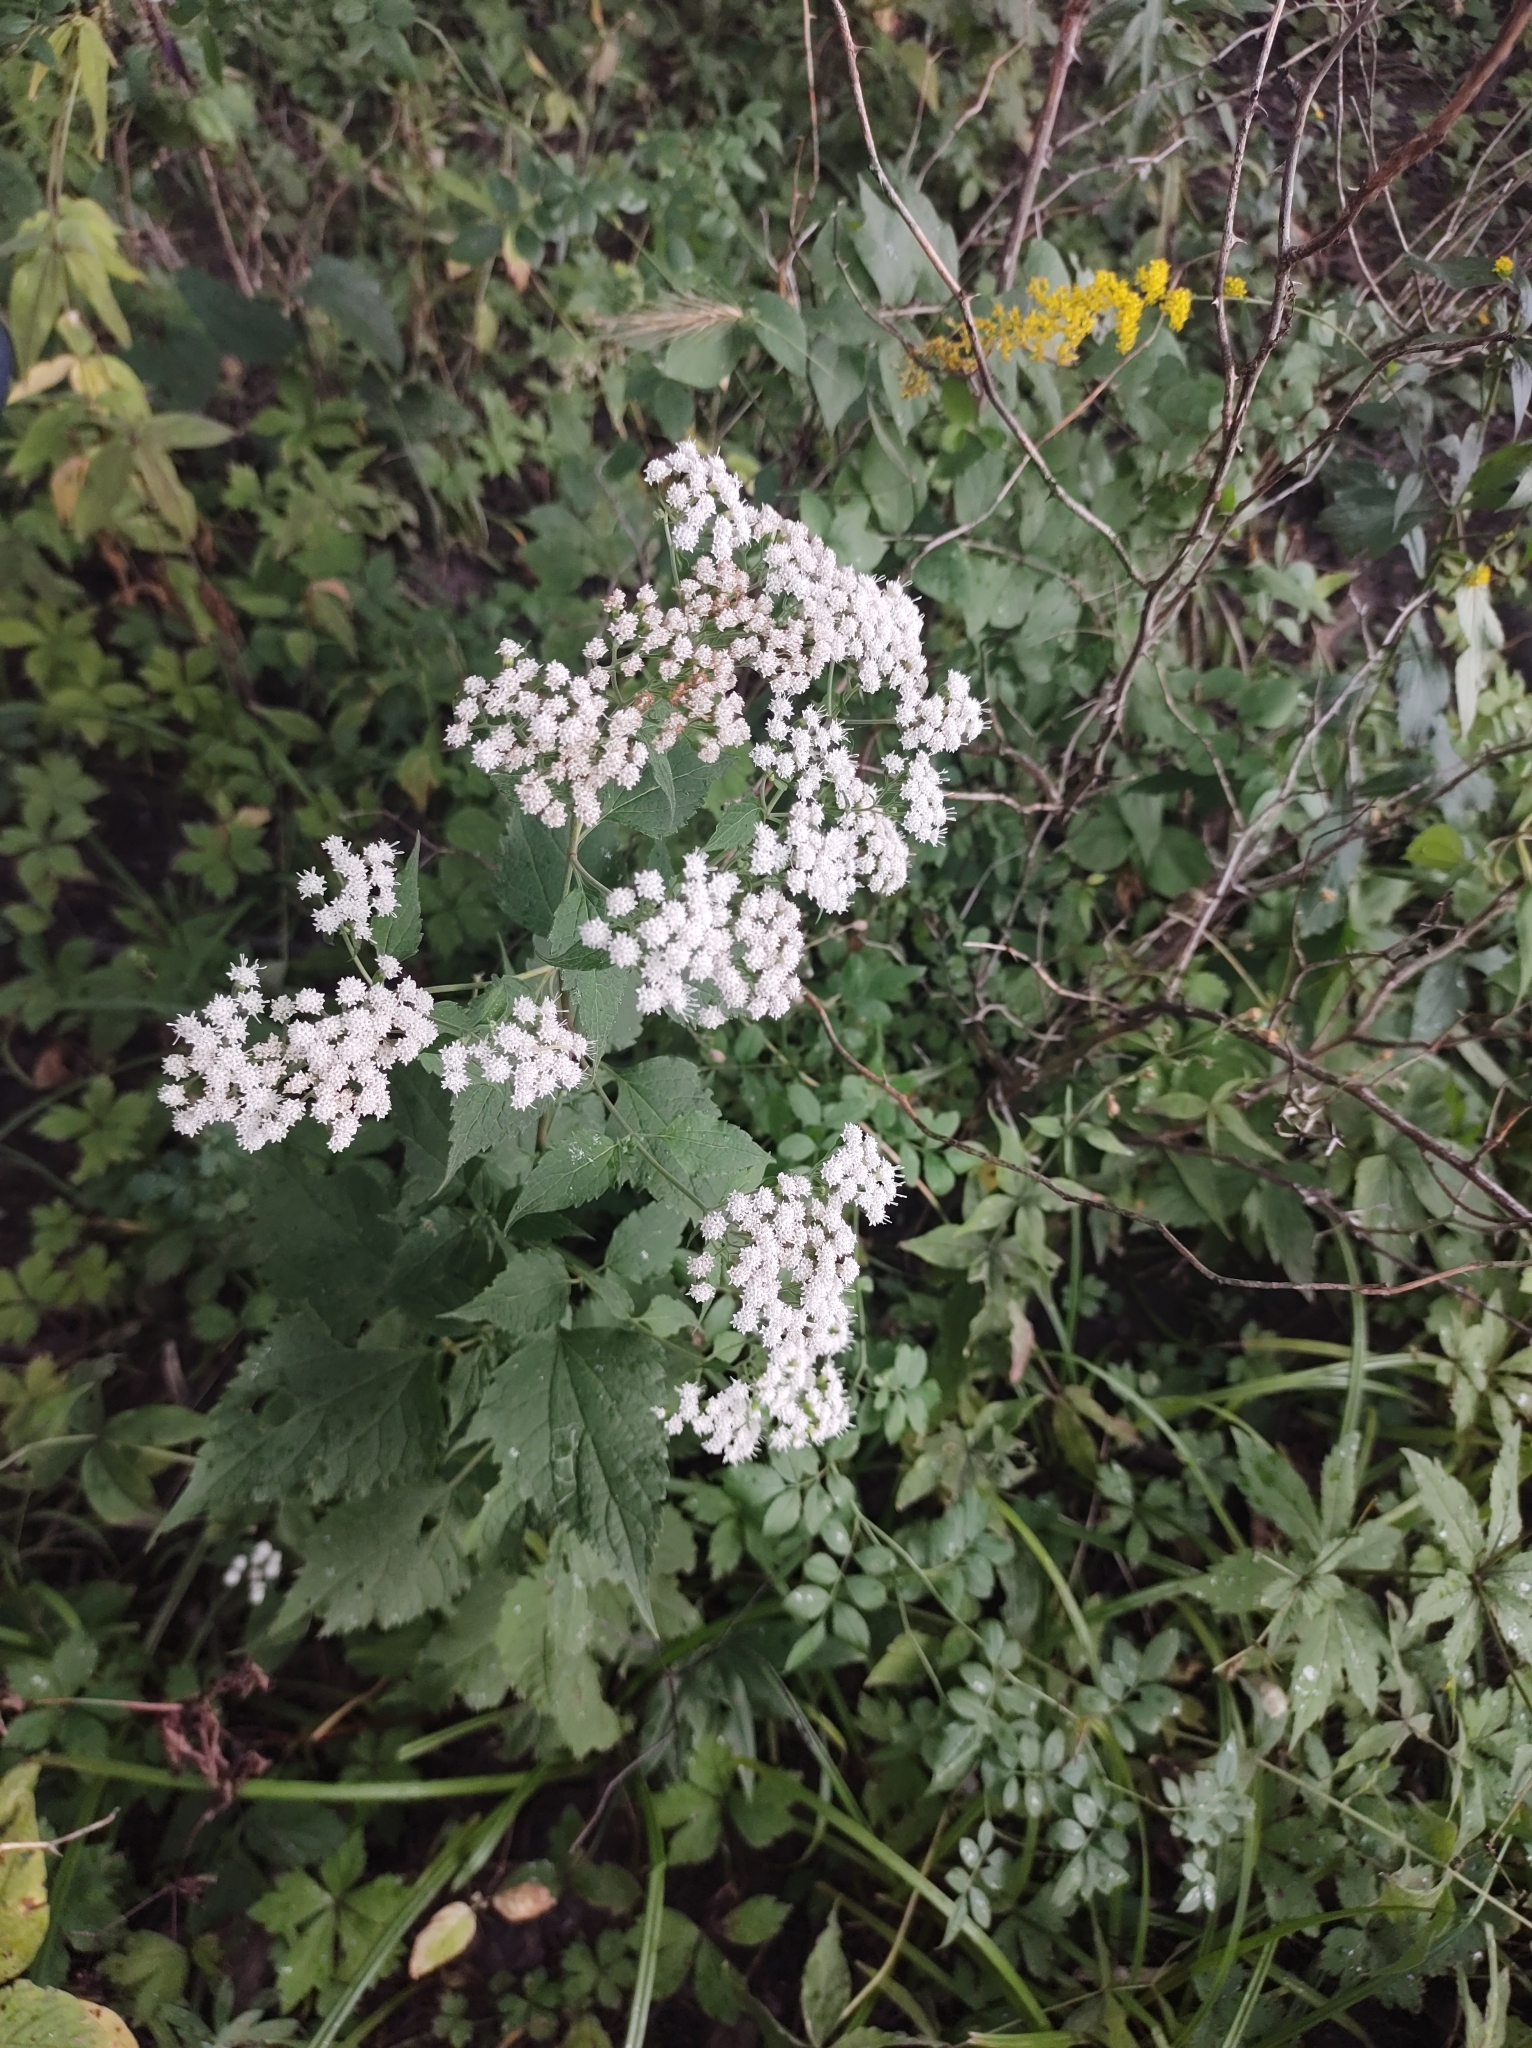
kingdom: Plantae
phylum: Tracheophyta
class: Magnoliopsida
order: Asterales
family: Asteraceae
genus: Ageratina
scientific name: Ageratina altissima
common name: White snakeroot
